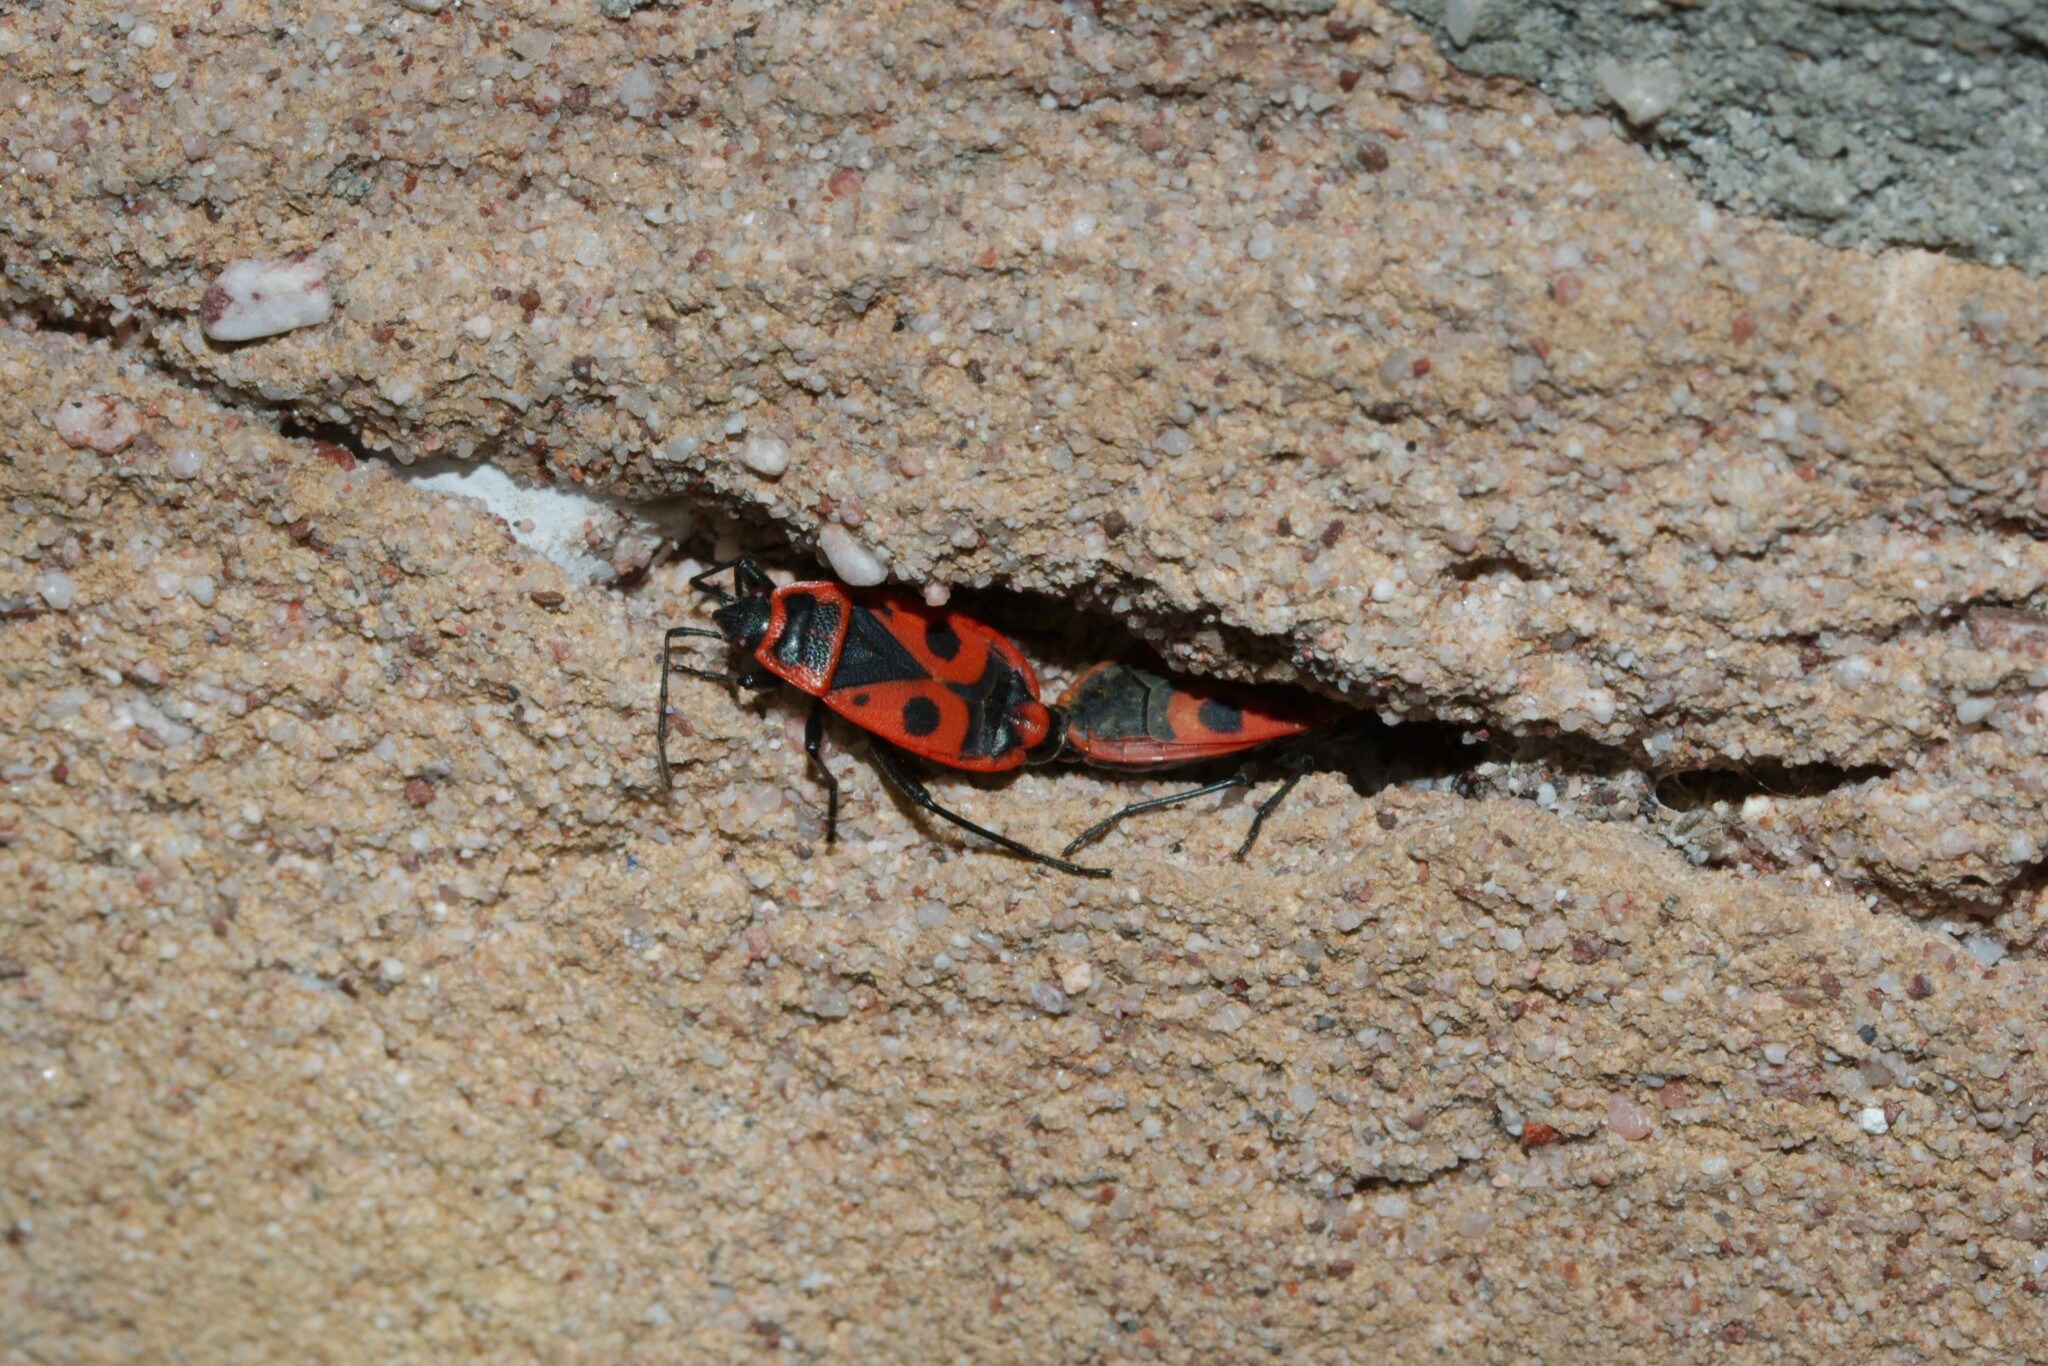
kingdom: Animalia
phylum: Arthropoda
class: Insecta
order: Hemiptera
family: Pyrrhocoridae
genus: Pyrrhocoris
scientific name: Pyrrhocoris apterus
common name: Firebug
